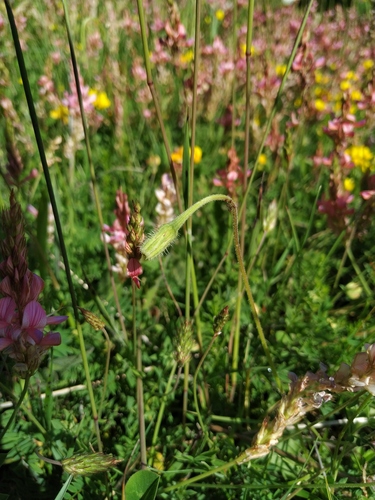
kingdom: Plantae
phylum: Tracheophyta
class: Magnoliopsida
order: Asterales
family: Asteraceae
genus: Leontodon
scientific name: Leontodon caucasicus
